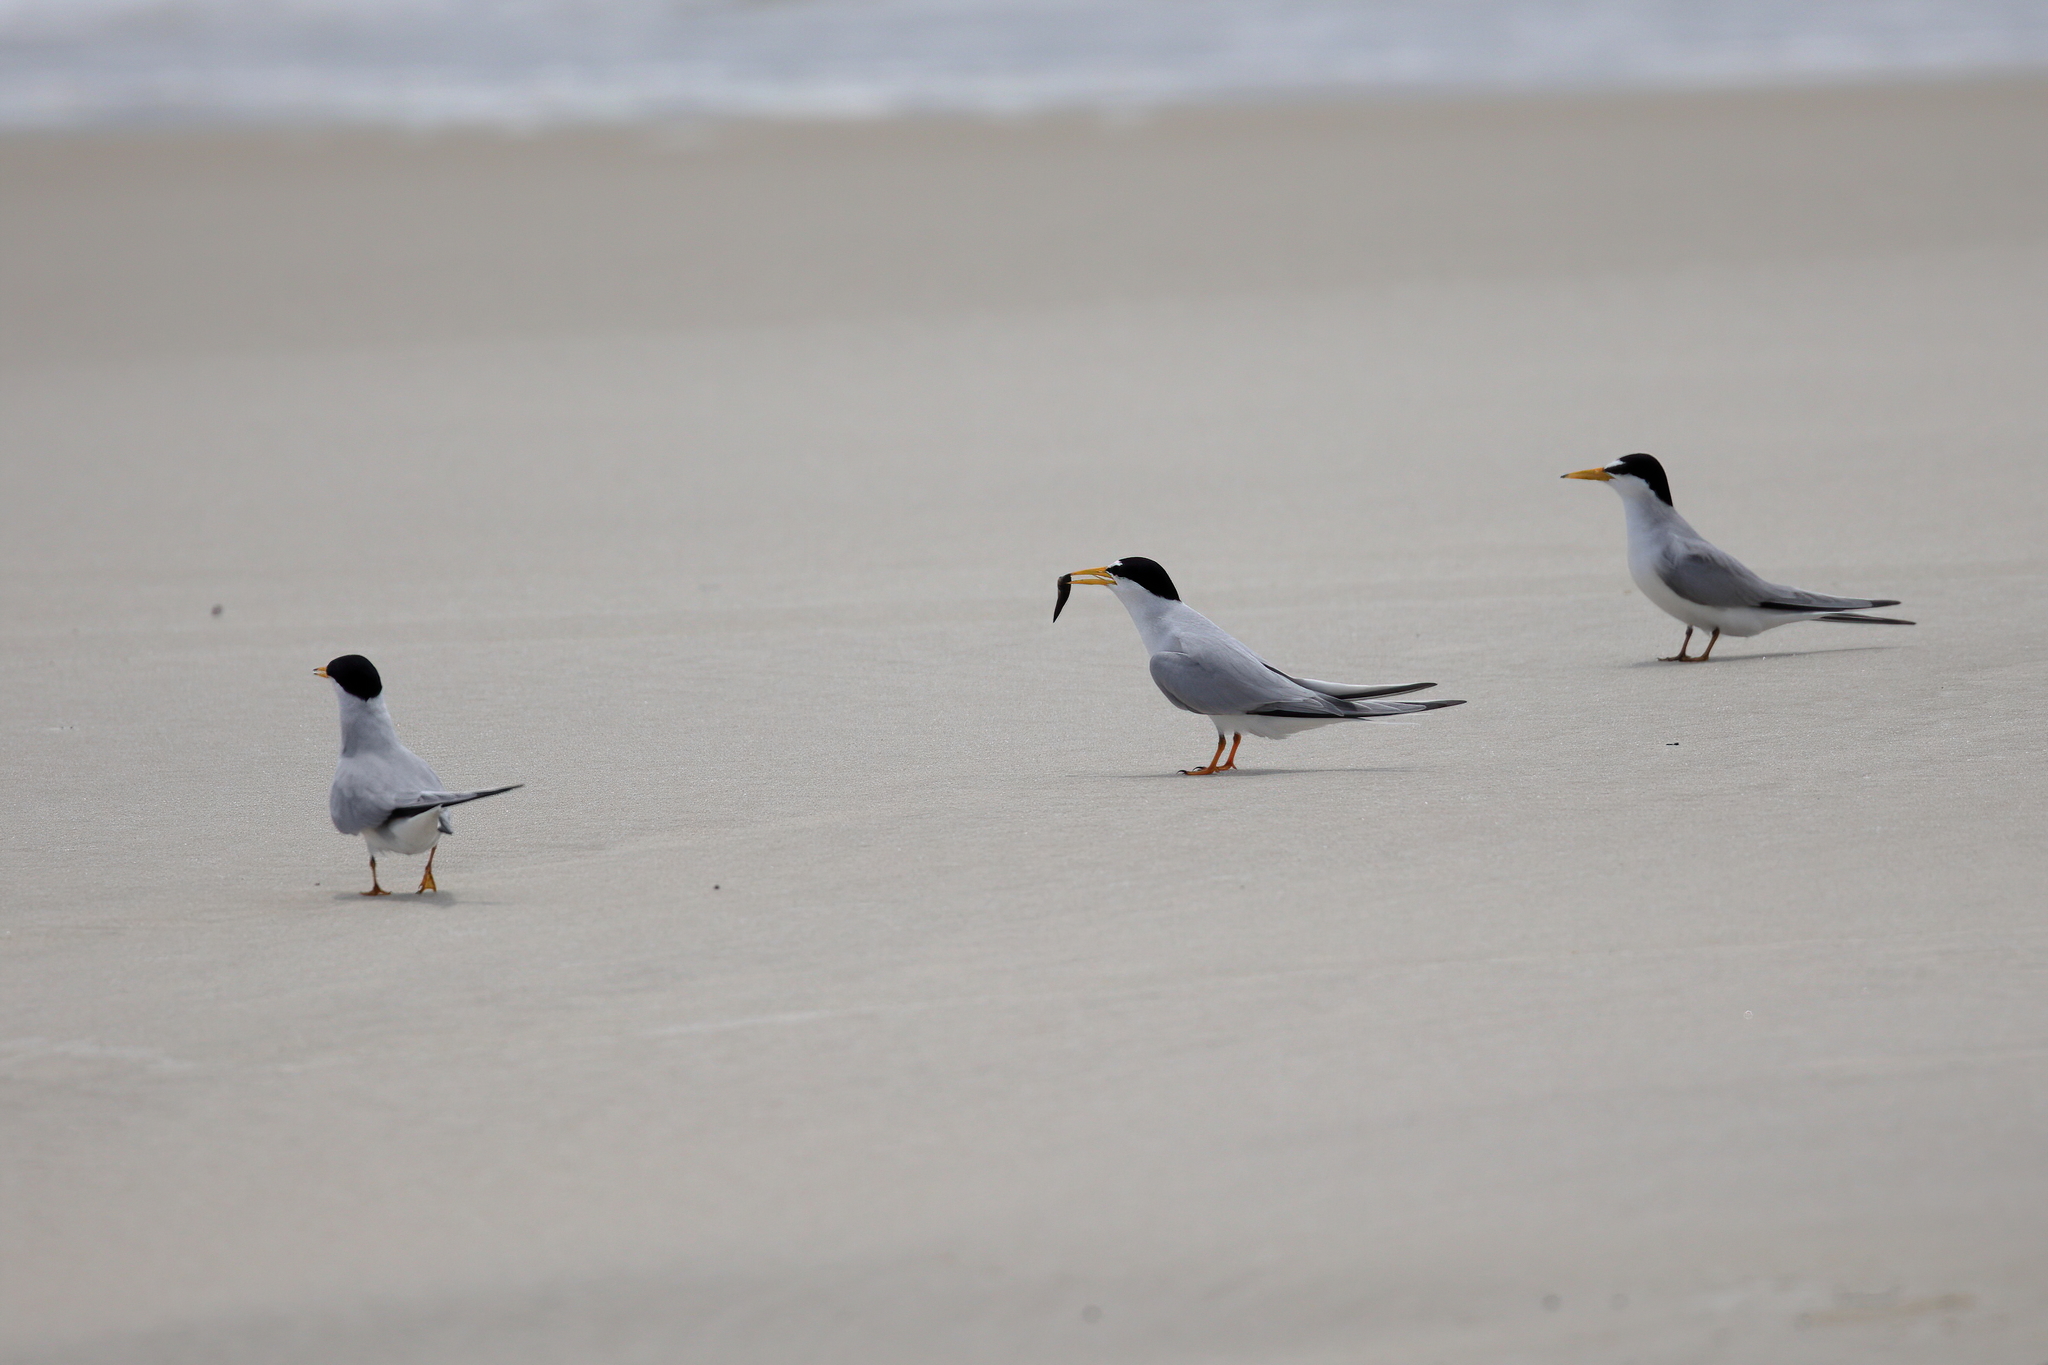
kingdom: Animalia
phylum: Chordata
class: Aves
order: Charadriiformes
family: Laridae
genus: Sternula
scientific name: Sternula antillarum
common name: Least tern
